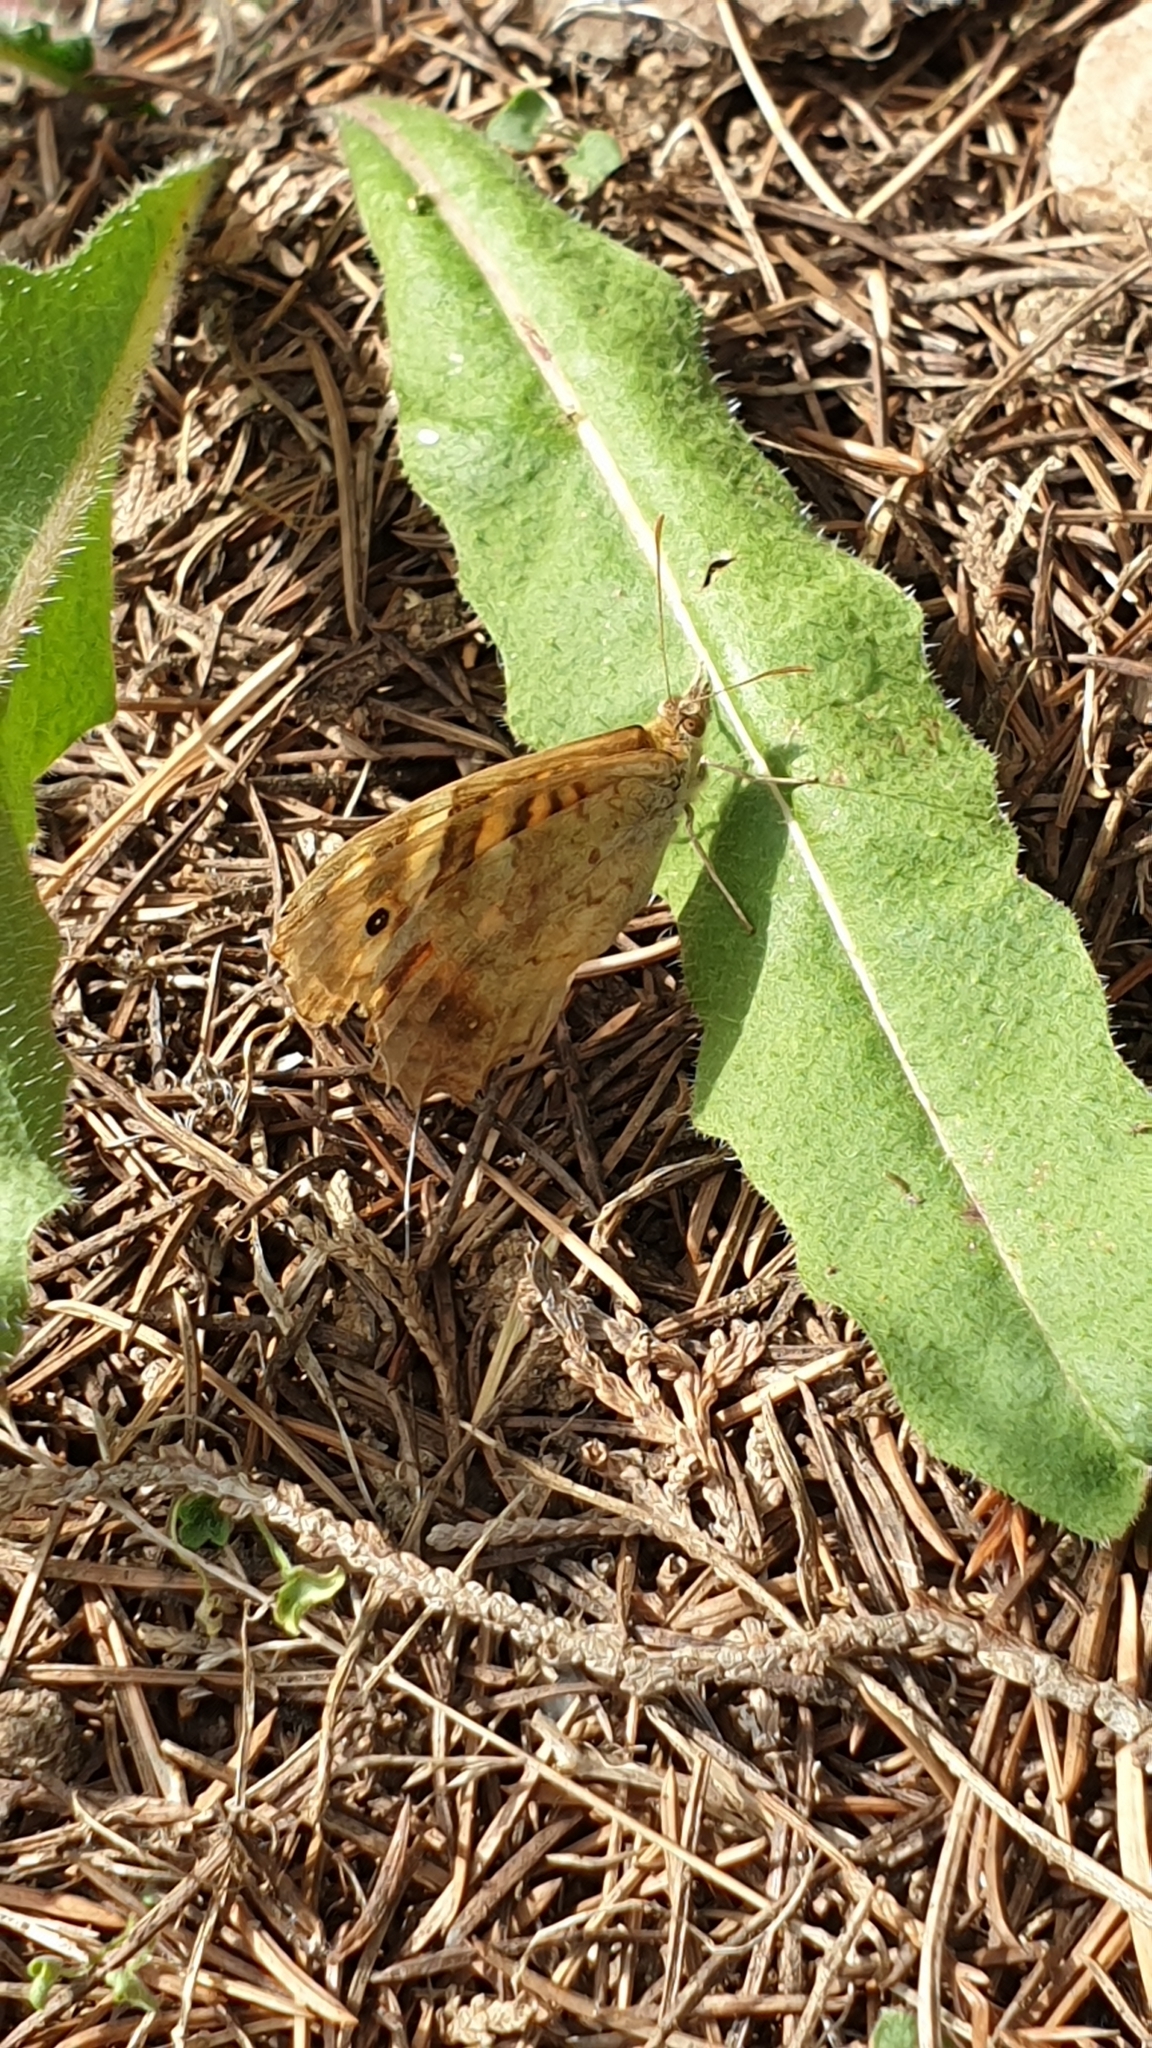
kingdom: Animalia
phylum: Arthropoda
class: Insecta
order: Lepidoptera
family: Nymphalidae
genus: Pararge
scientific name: Pararge aegeria
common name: Speckled wood
